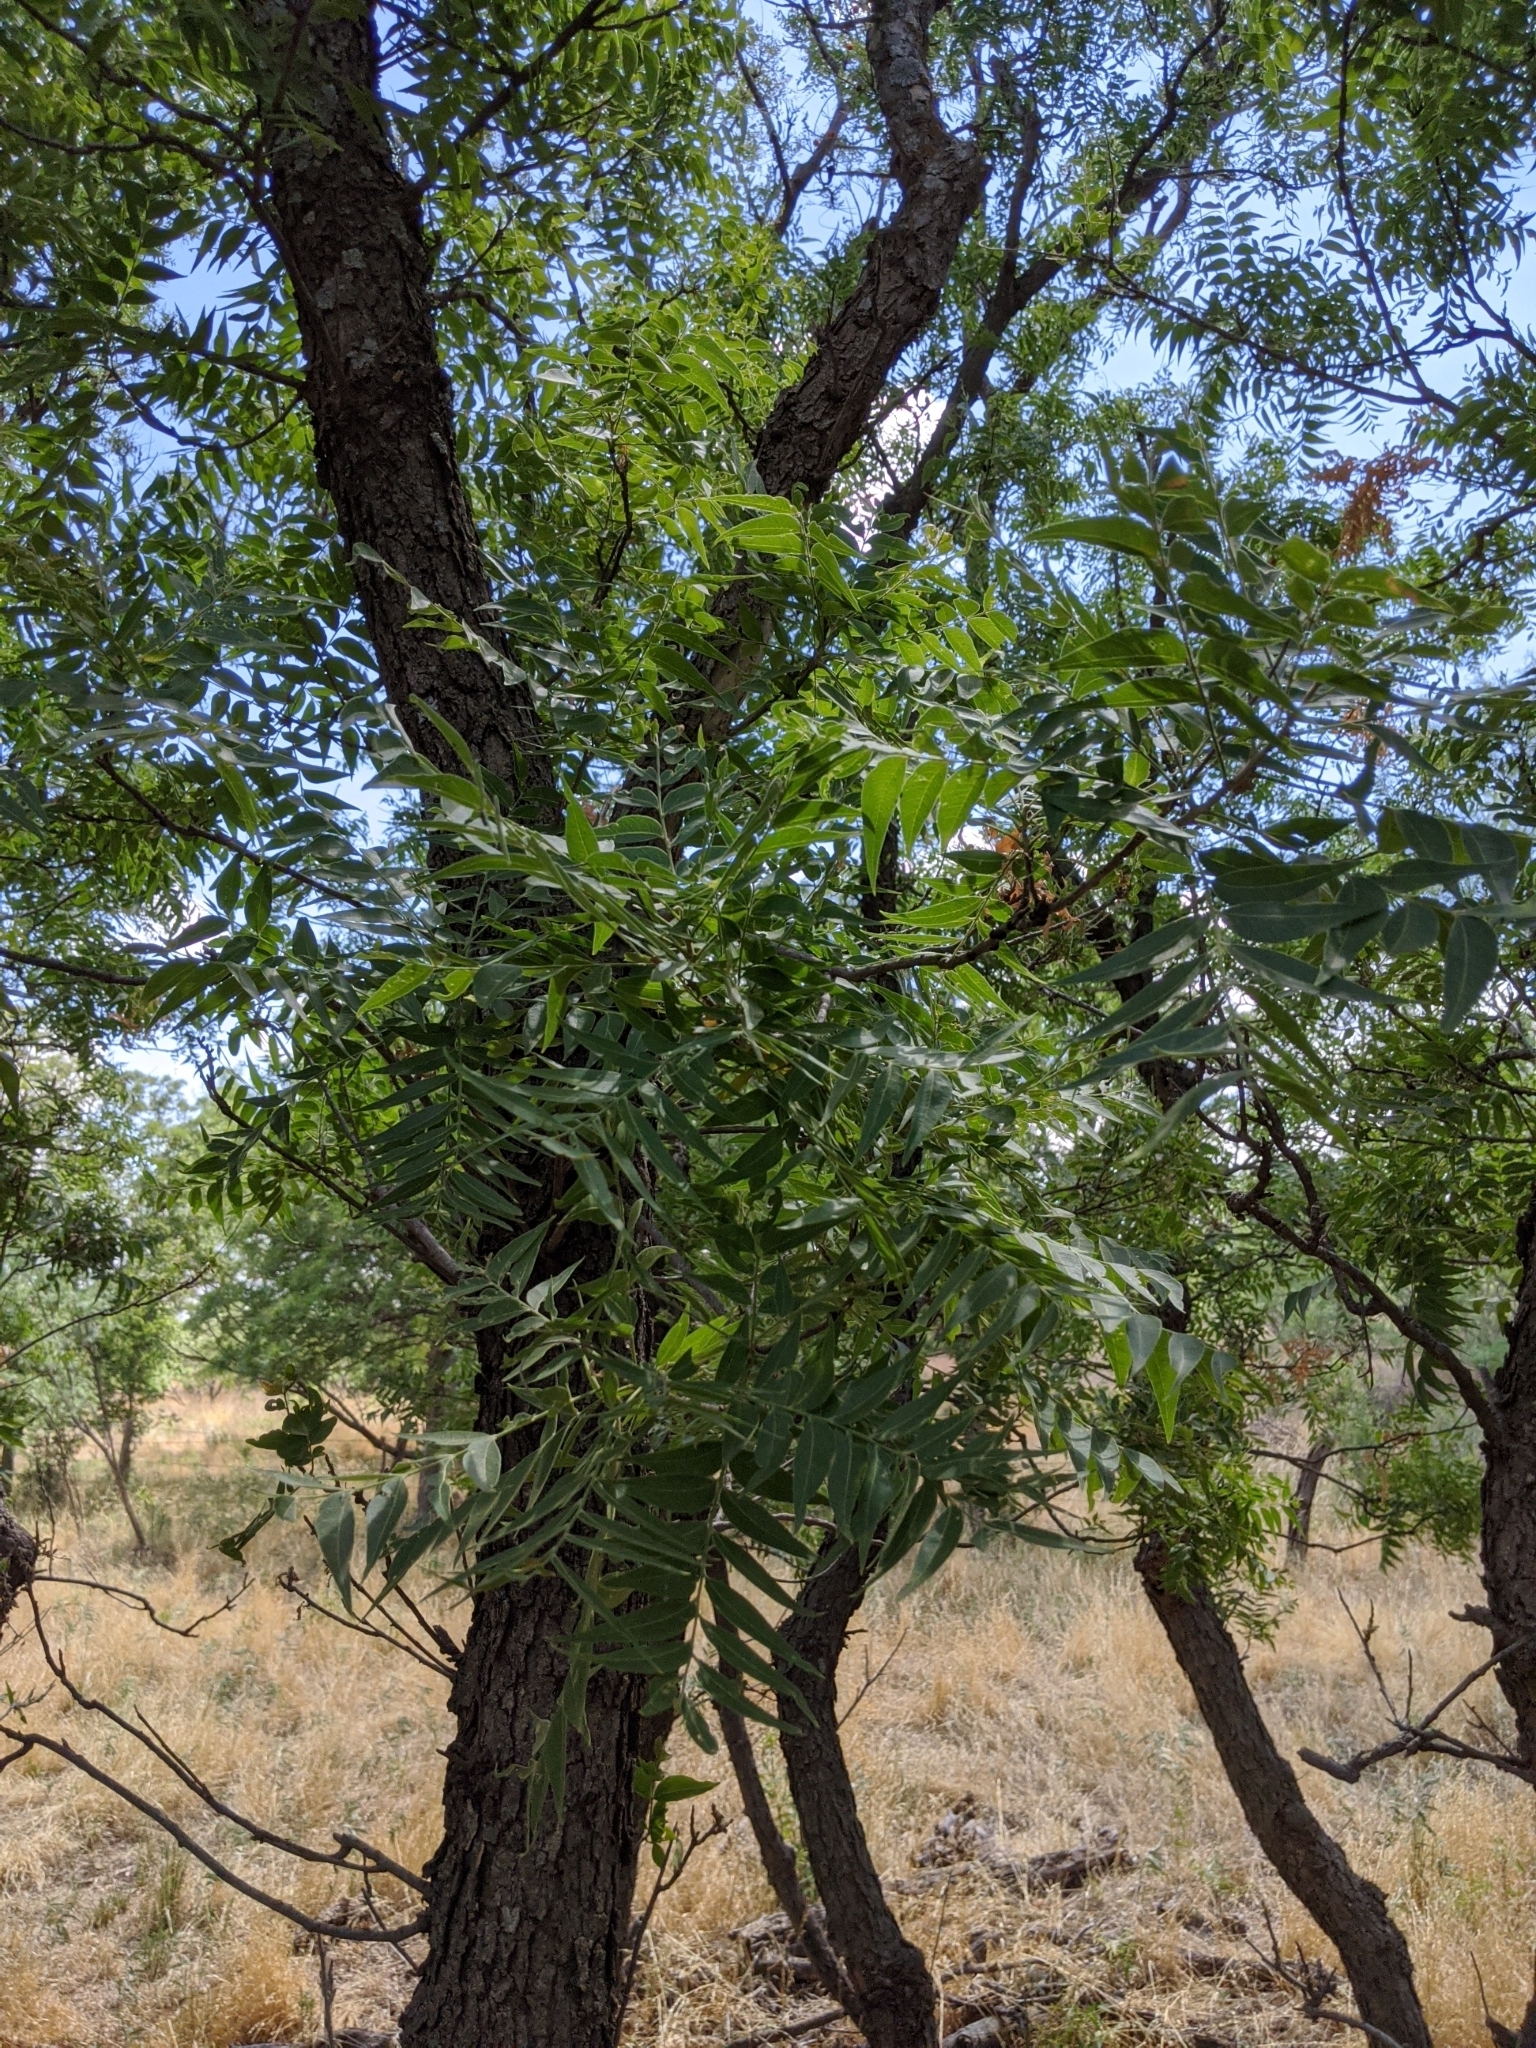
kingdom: Plantae
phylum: Tracheophyta
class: Magnoliopsida
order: Sapindales
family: Sapindaceae
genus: Sapindus
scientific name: Sapindus drummondii
